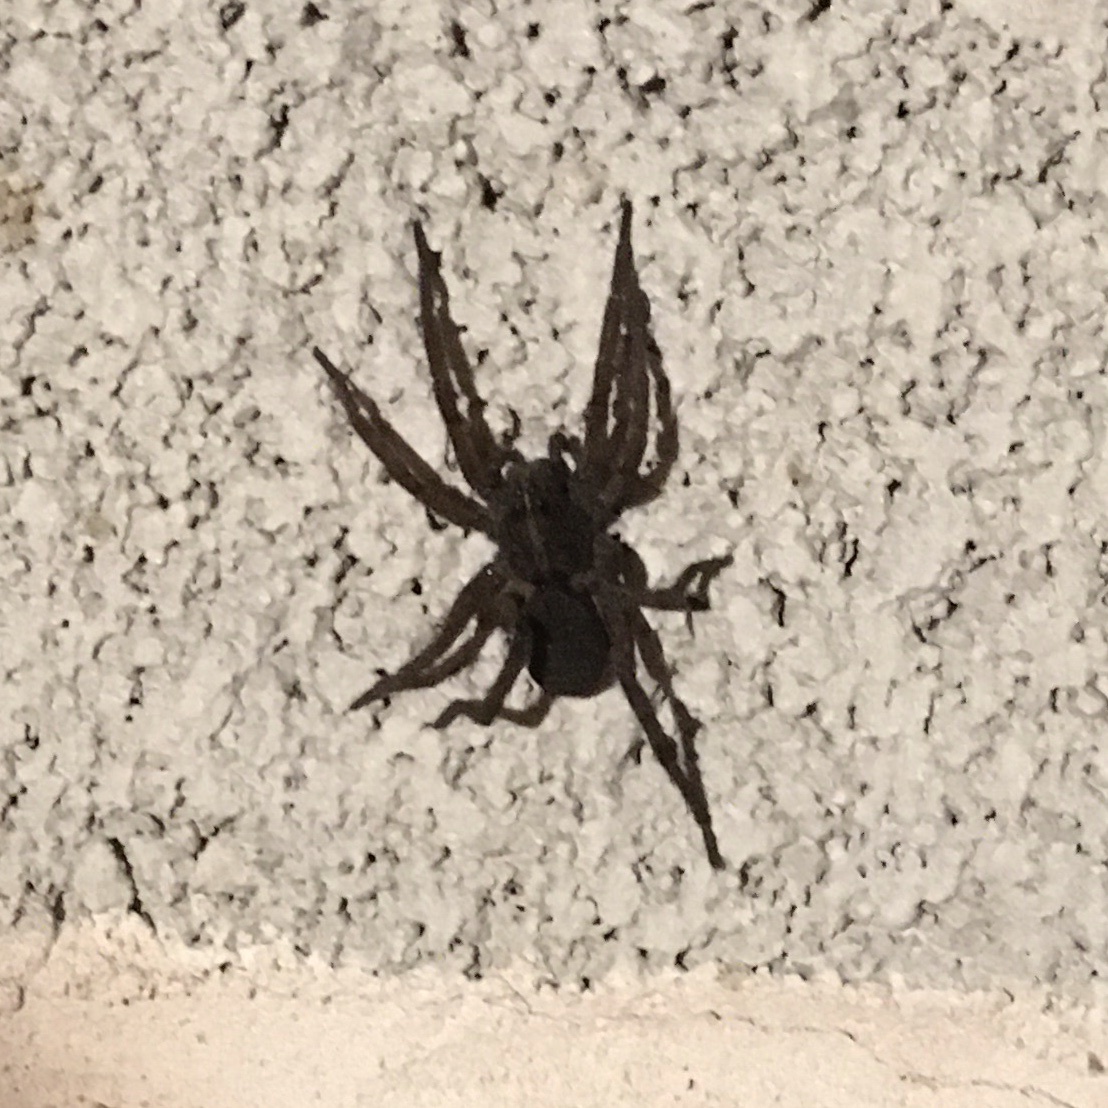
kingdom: Animalia
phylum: Arthropoda
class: Arachnida
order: Araneae
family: Lycosidae
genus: Tigrosa
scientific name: Tigrosa helluo
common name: Wetland giant wolf spider
